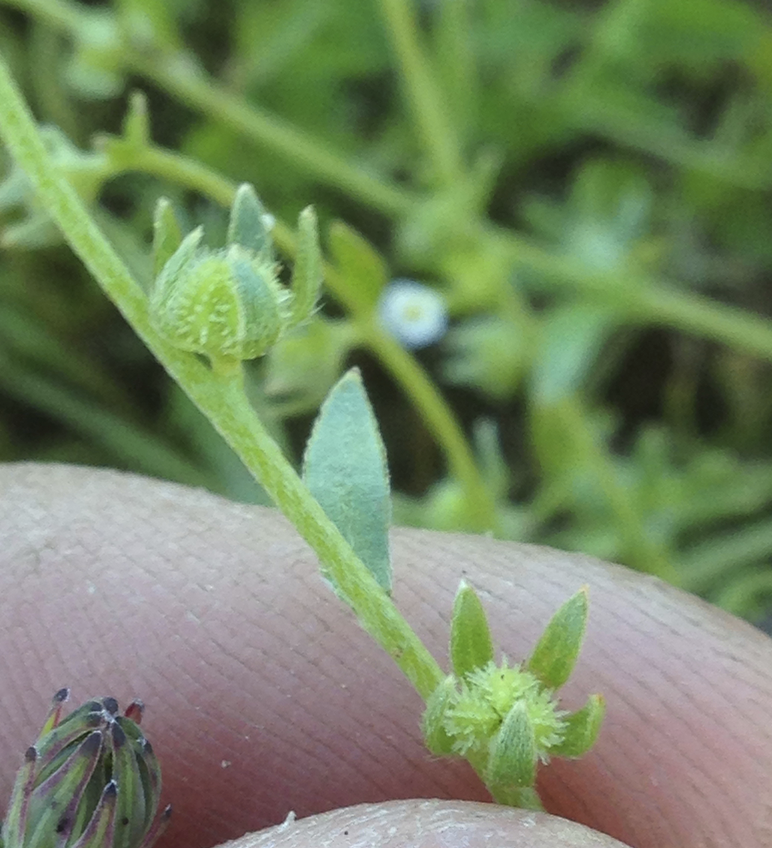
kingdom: Plantae
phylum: Tracheophyta
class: Magnoliopsida
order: Boraginales
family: Boraginaceae
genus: Plagiobothrys
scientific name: Plagiobothrys acanthocarpus
